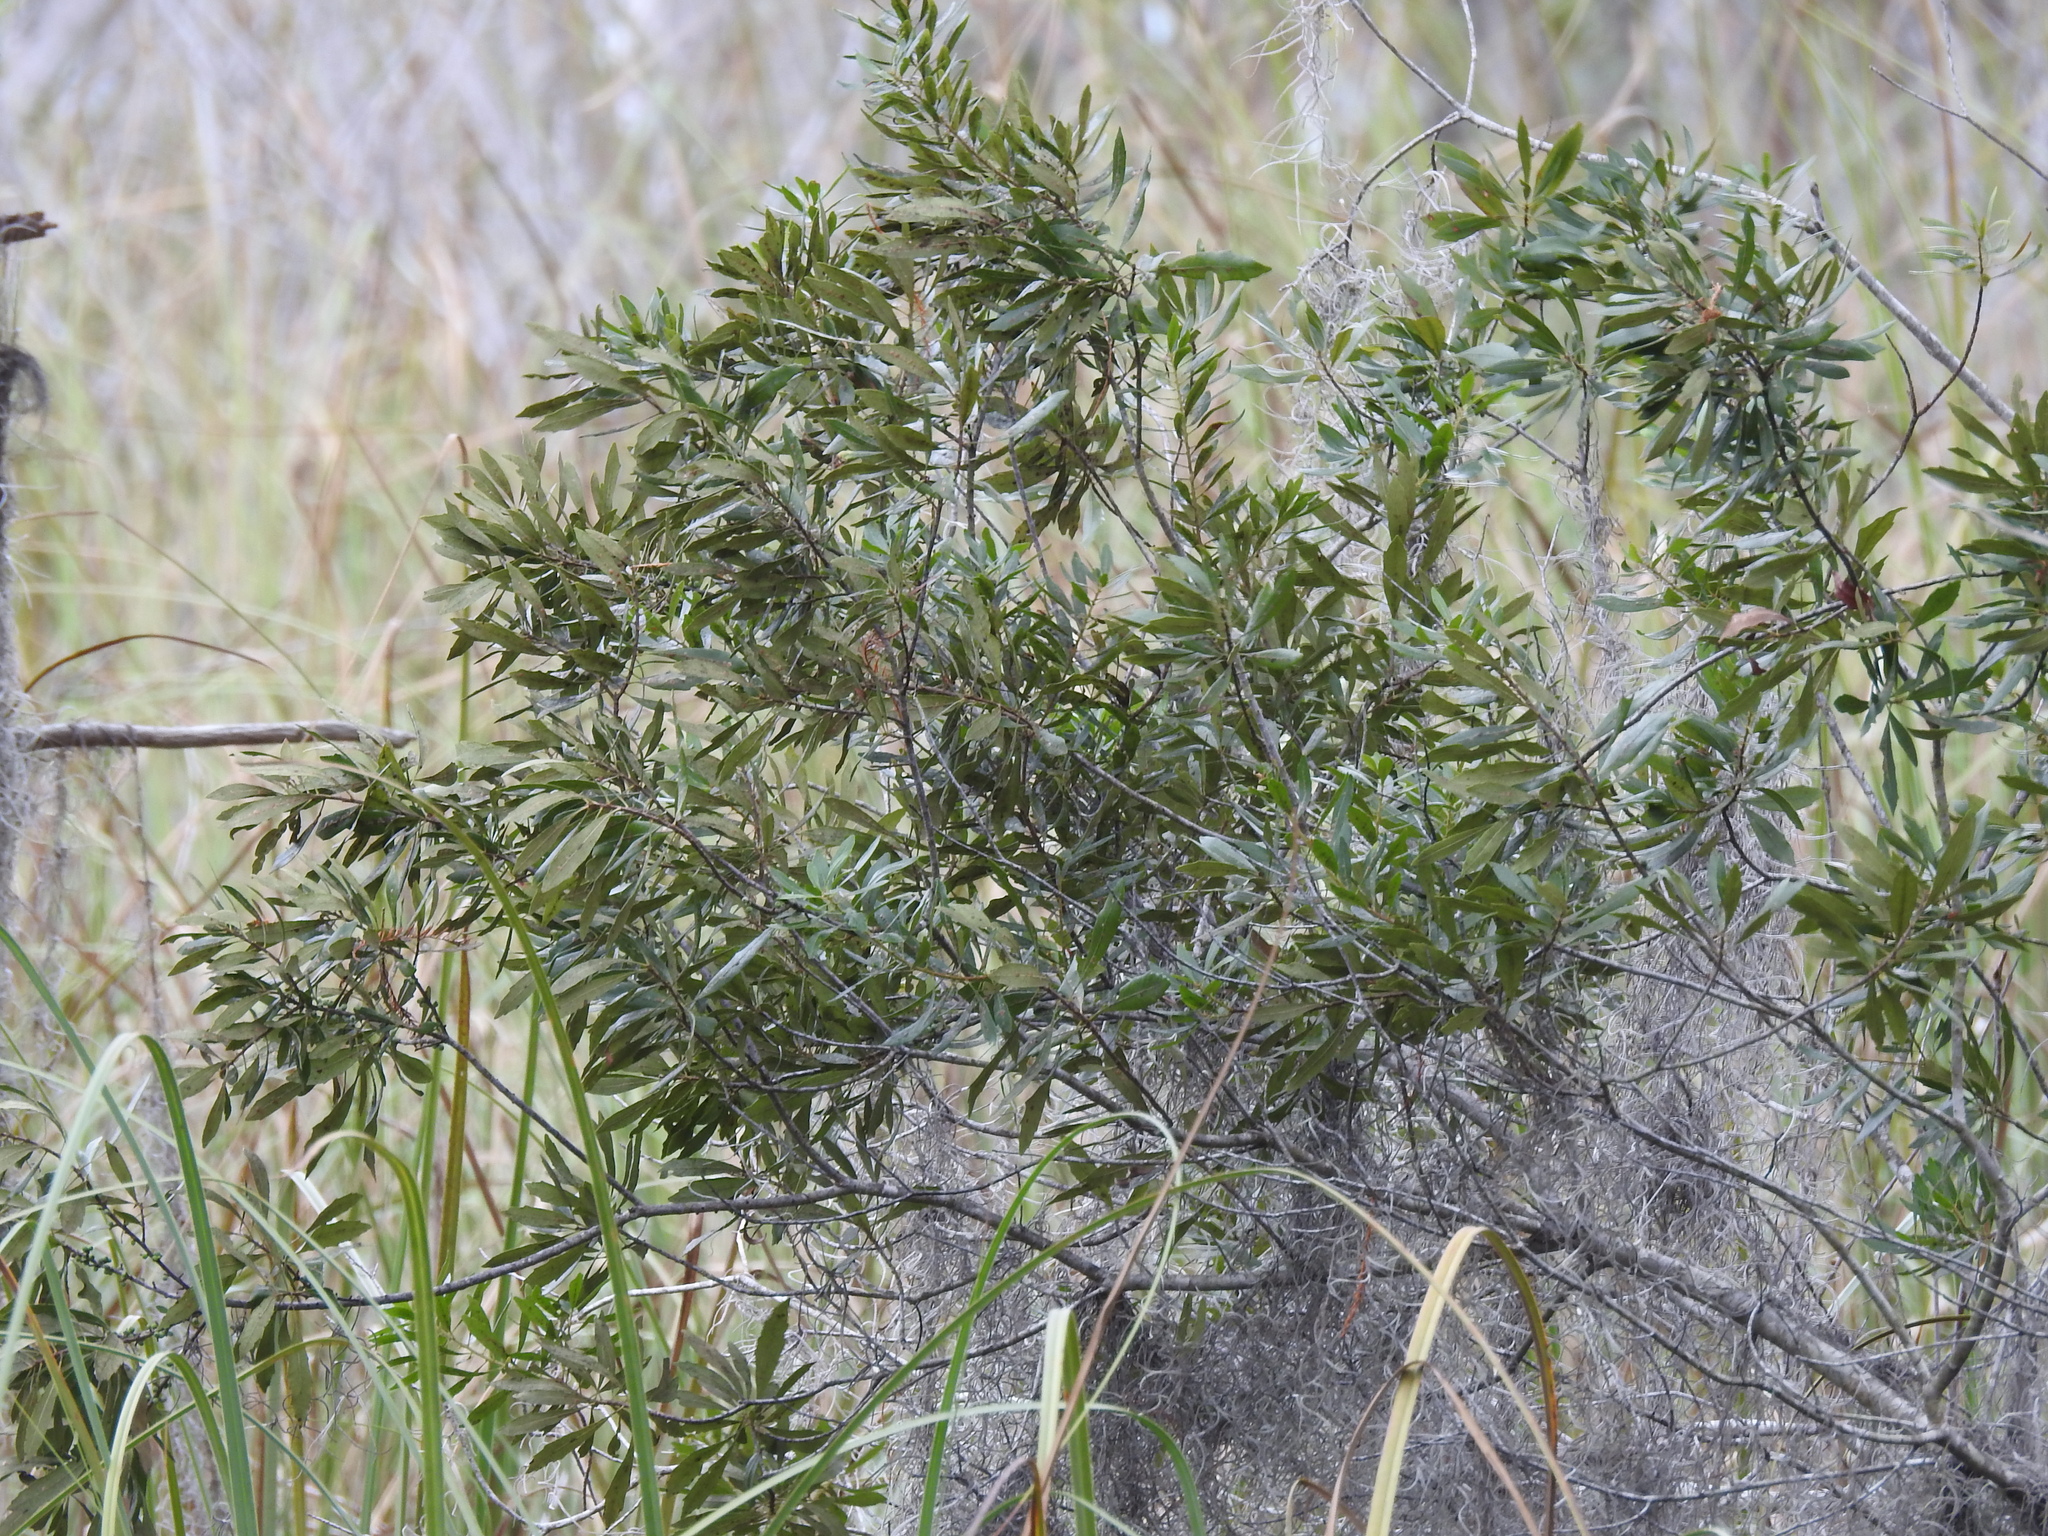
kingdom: Plantae
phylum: Tracheophyta
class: Magnoliopsida
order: Fagales
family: Myricaceae
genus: Morella
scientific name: Morella cerifera
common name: Wax myrtle
